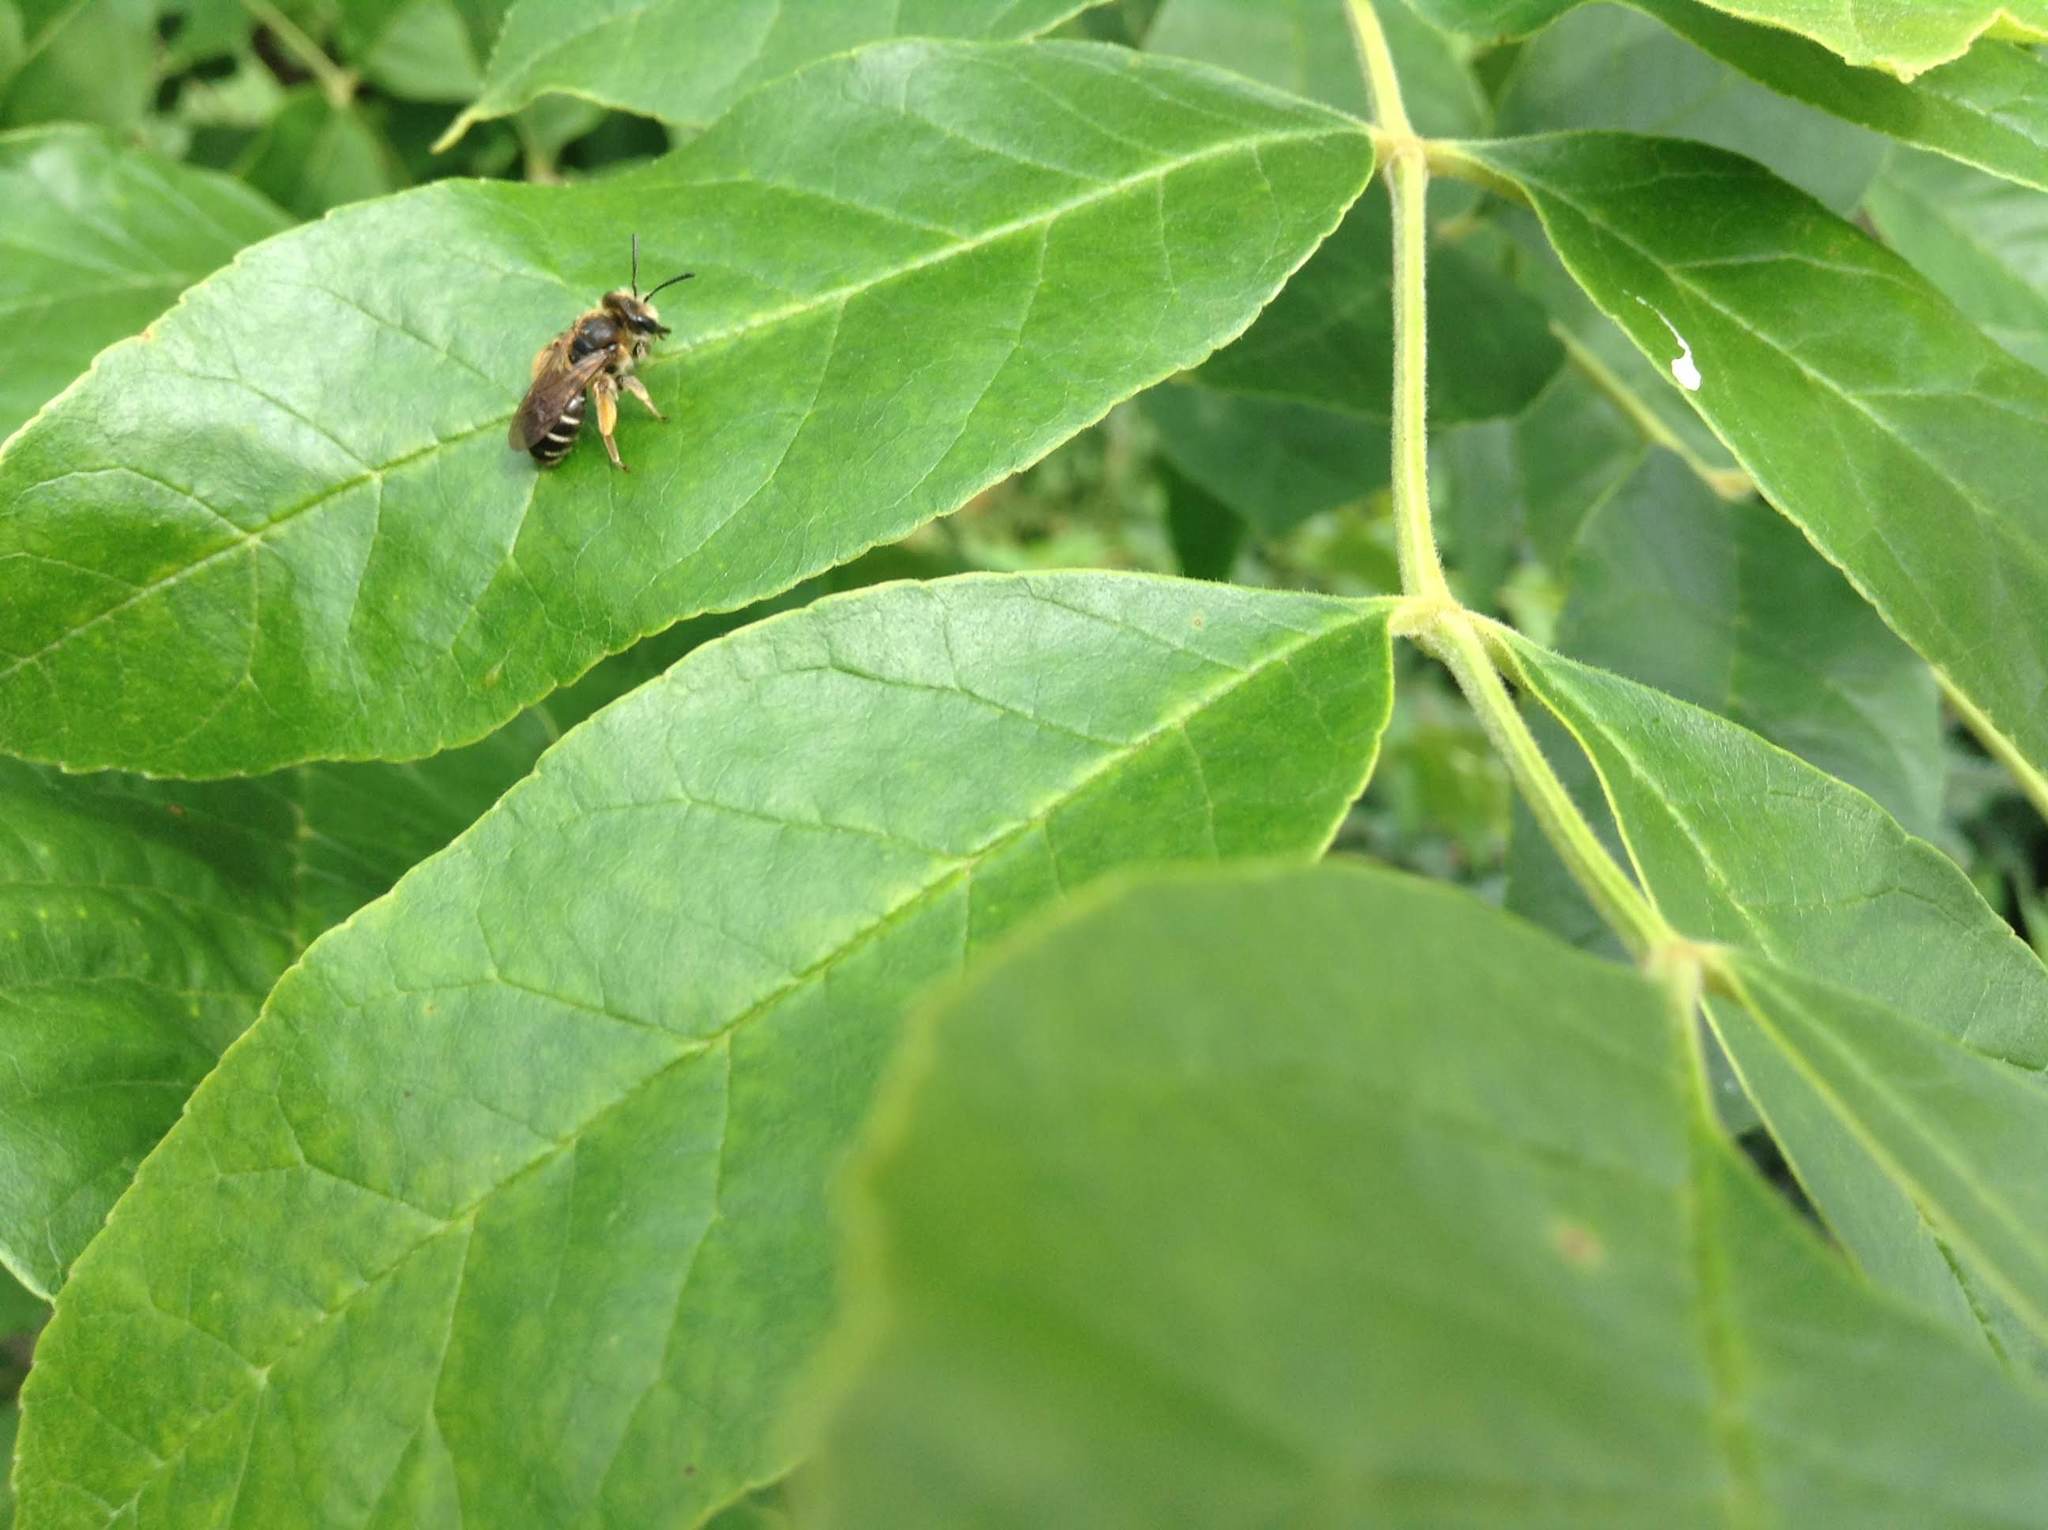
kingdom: Animalia
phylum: Arthropoda
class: Insecta
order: Hymenoptera
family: Andrenidae
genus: Andrena
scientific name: Andrena wilkella
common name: Wilke's mining bee
